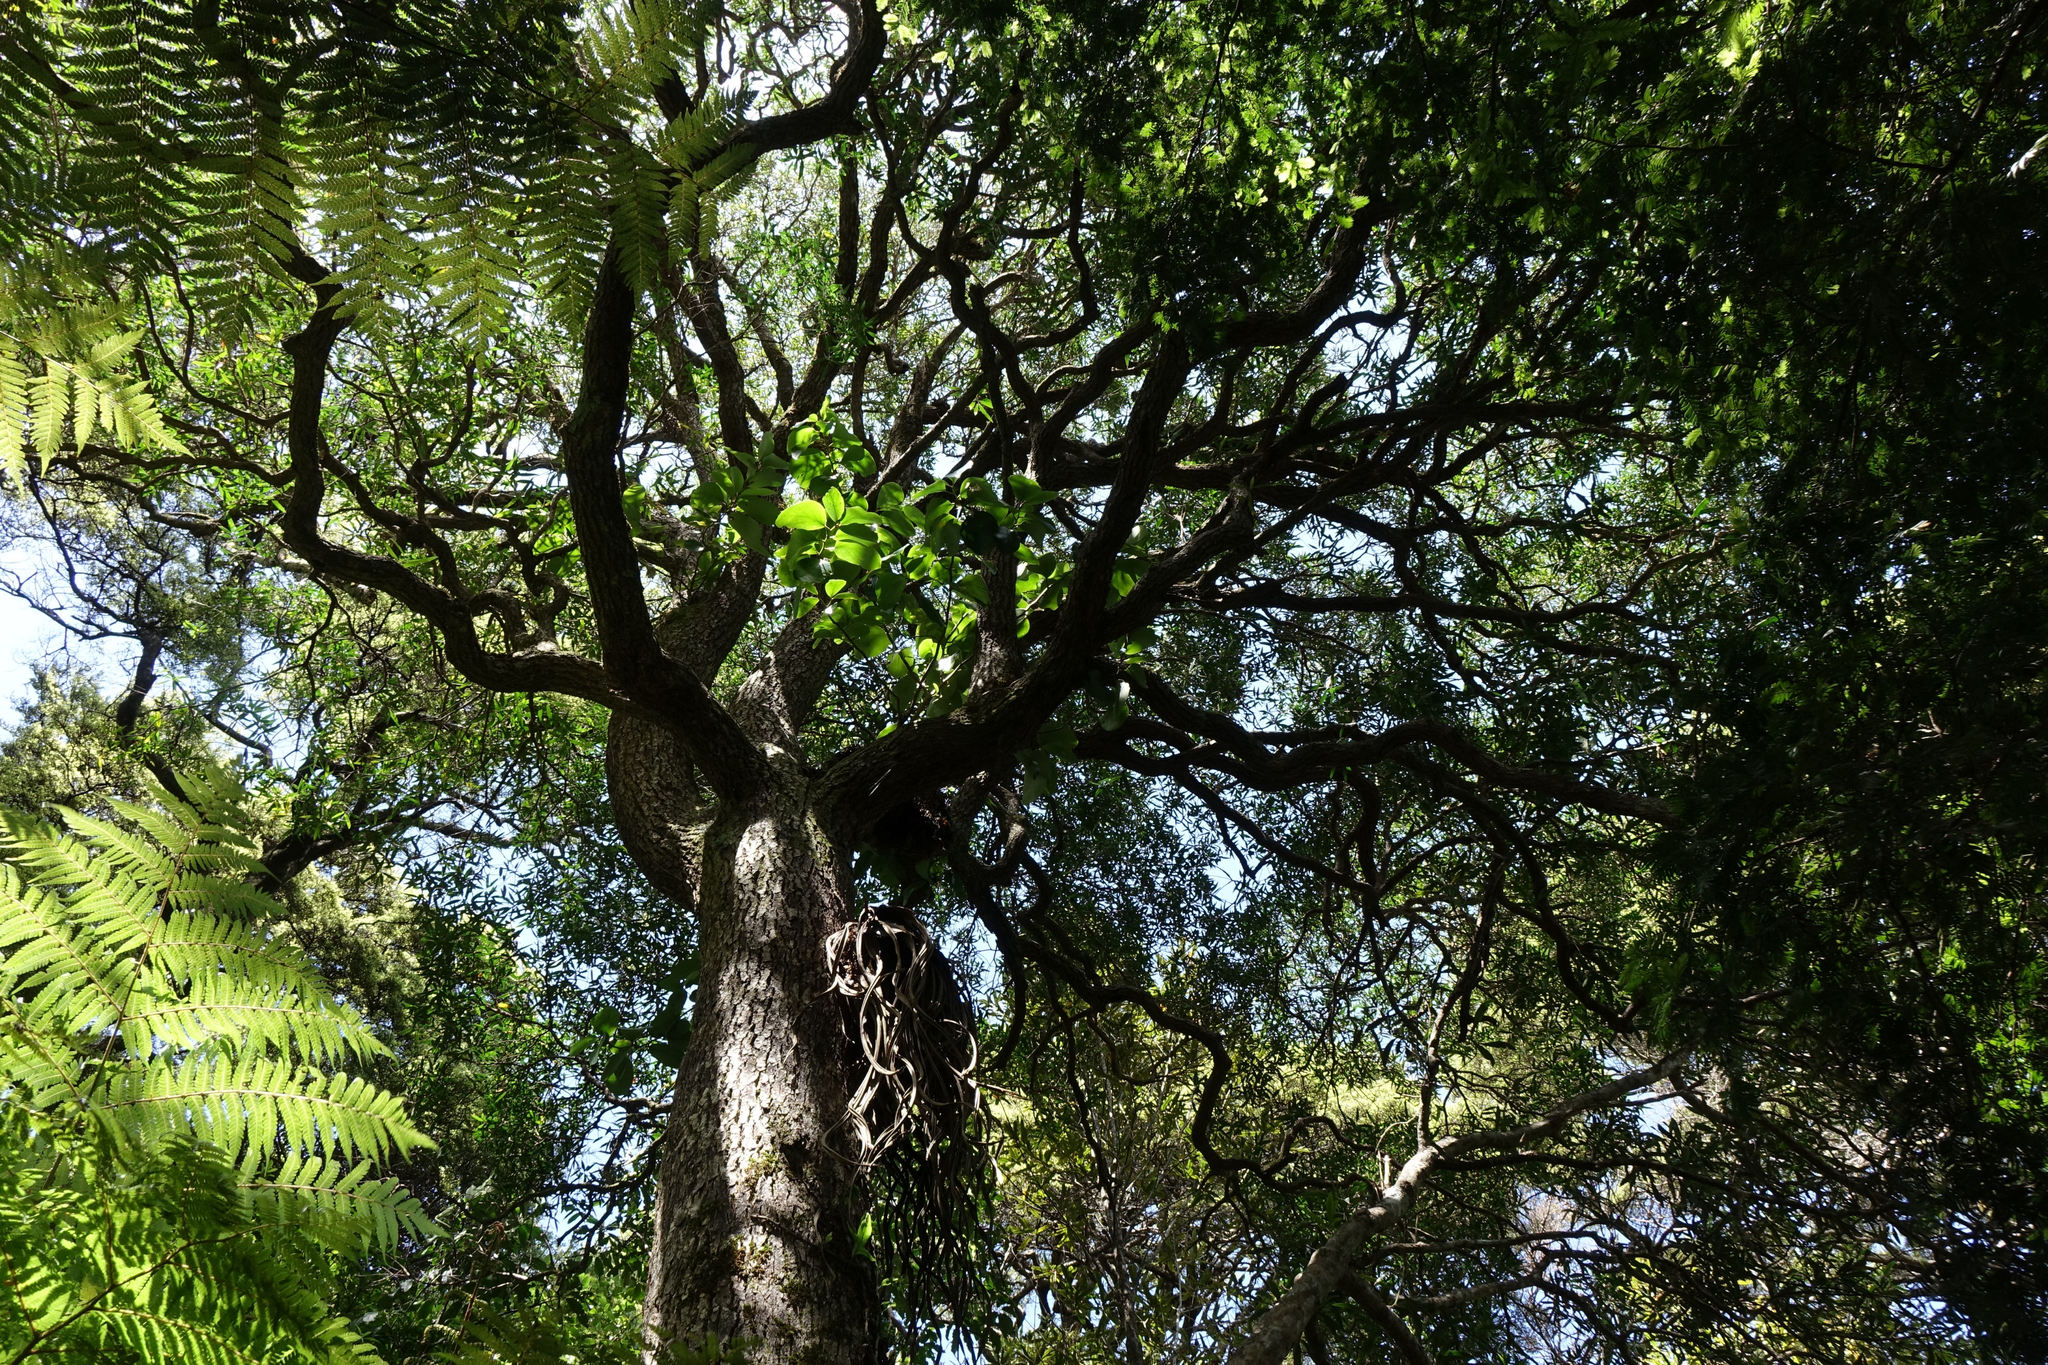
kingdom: Plantae
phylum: Tracheophyta
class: Magnoliopsida
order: Lamiales
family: Oleaceae
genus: Nestegis
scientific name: Nestegis lanceolata
